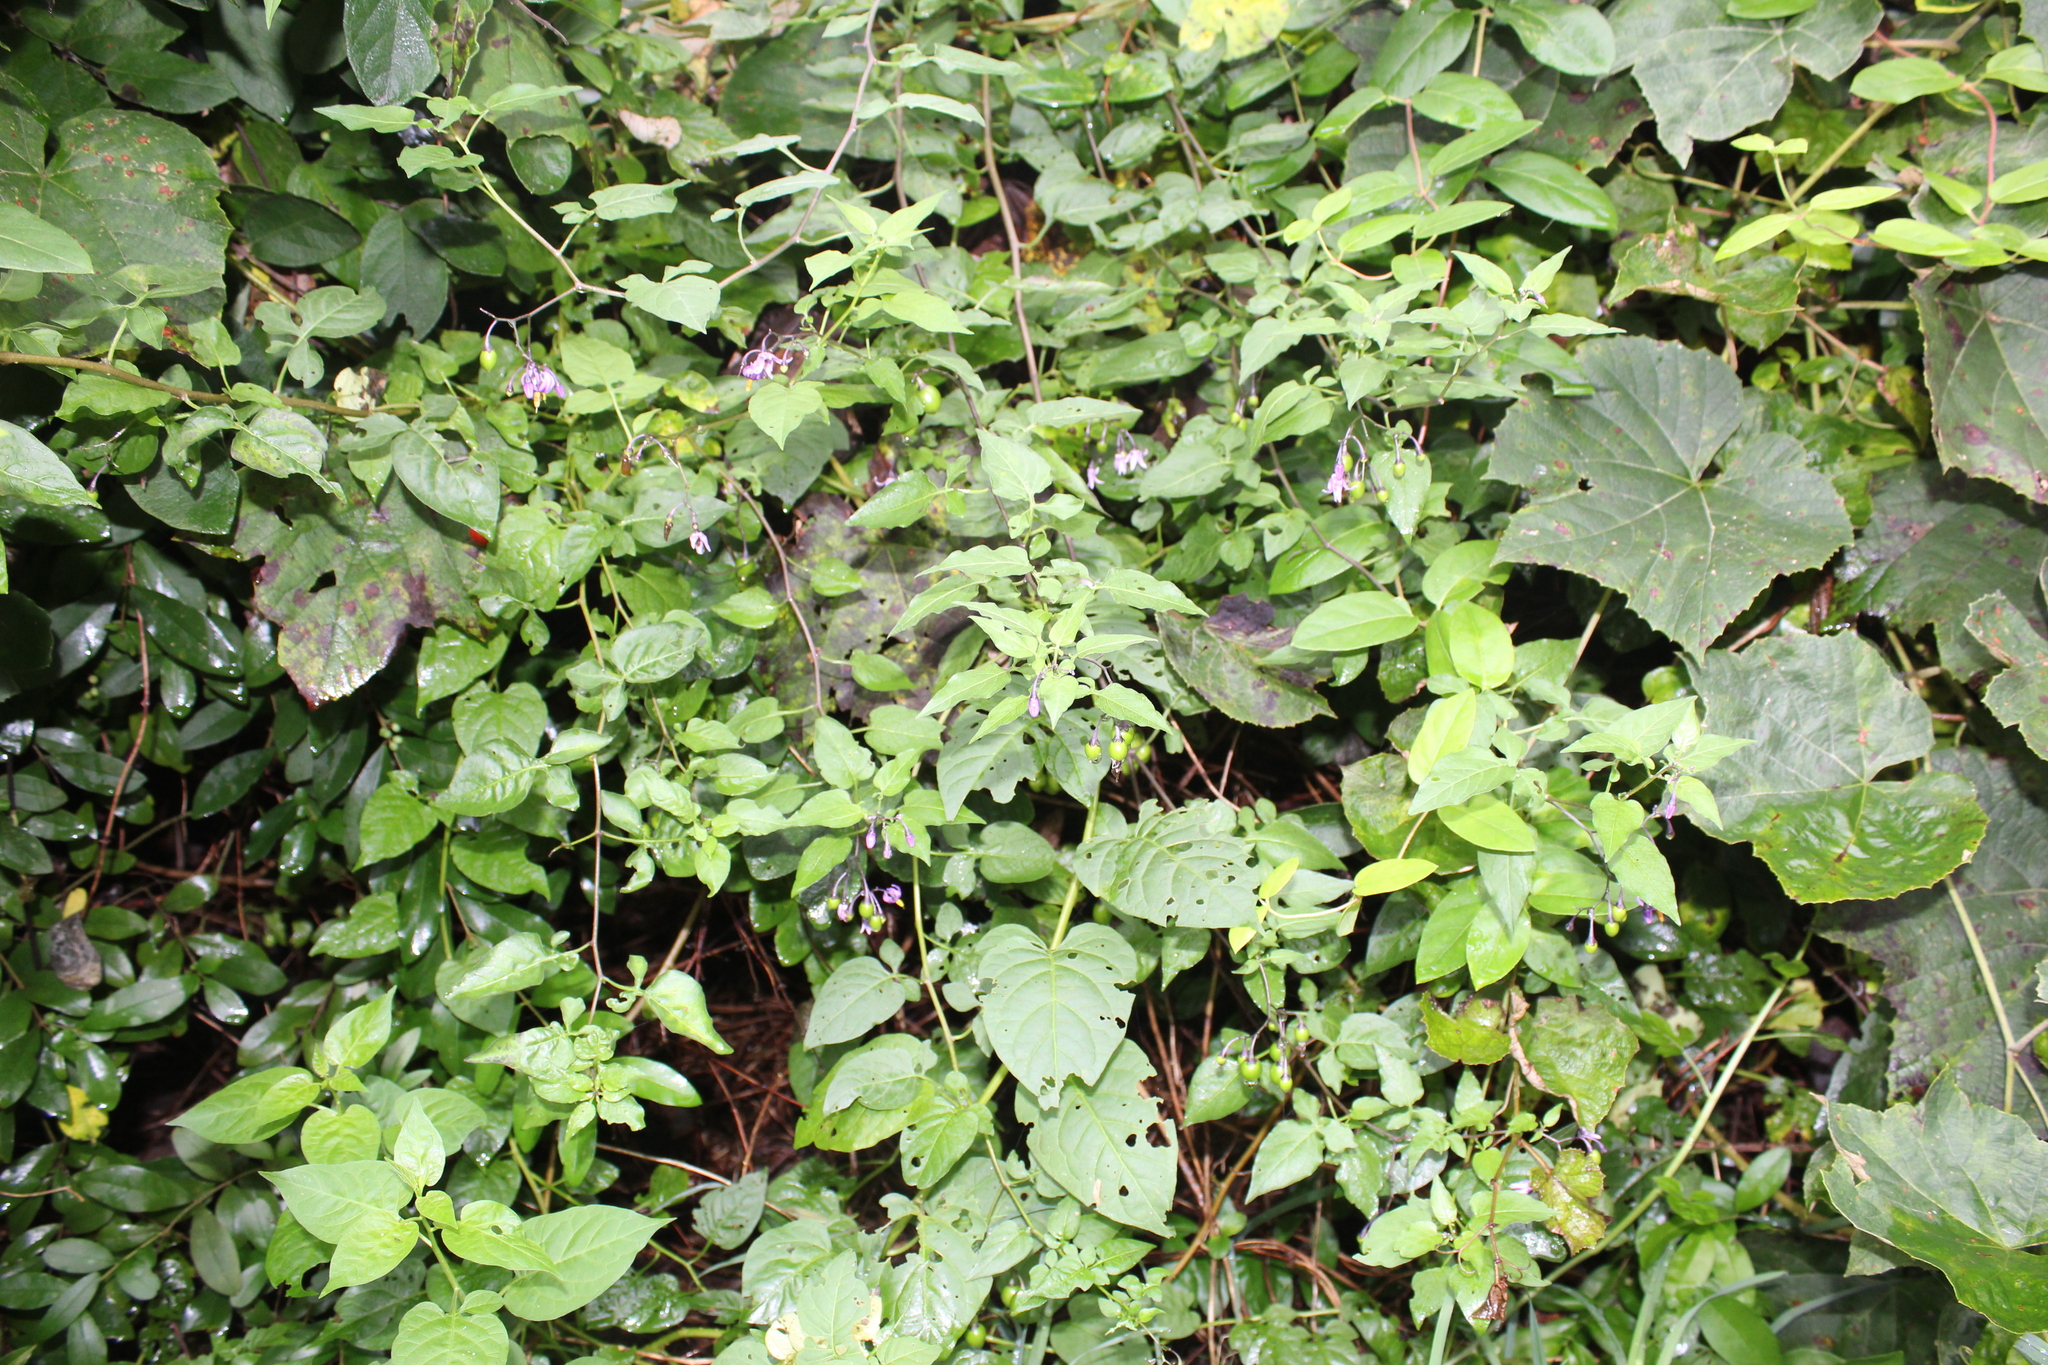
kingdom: Plantae
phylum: Tracheophyta
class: Magnoliopsida
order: Solanales
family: Solanaceae
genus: Solanum
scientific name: Solanum dulcamara
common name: Climbing nightshade
